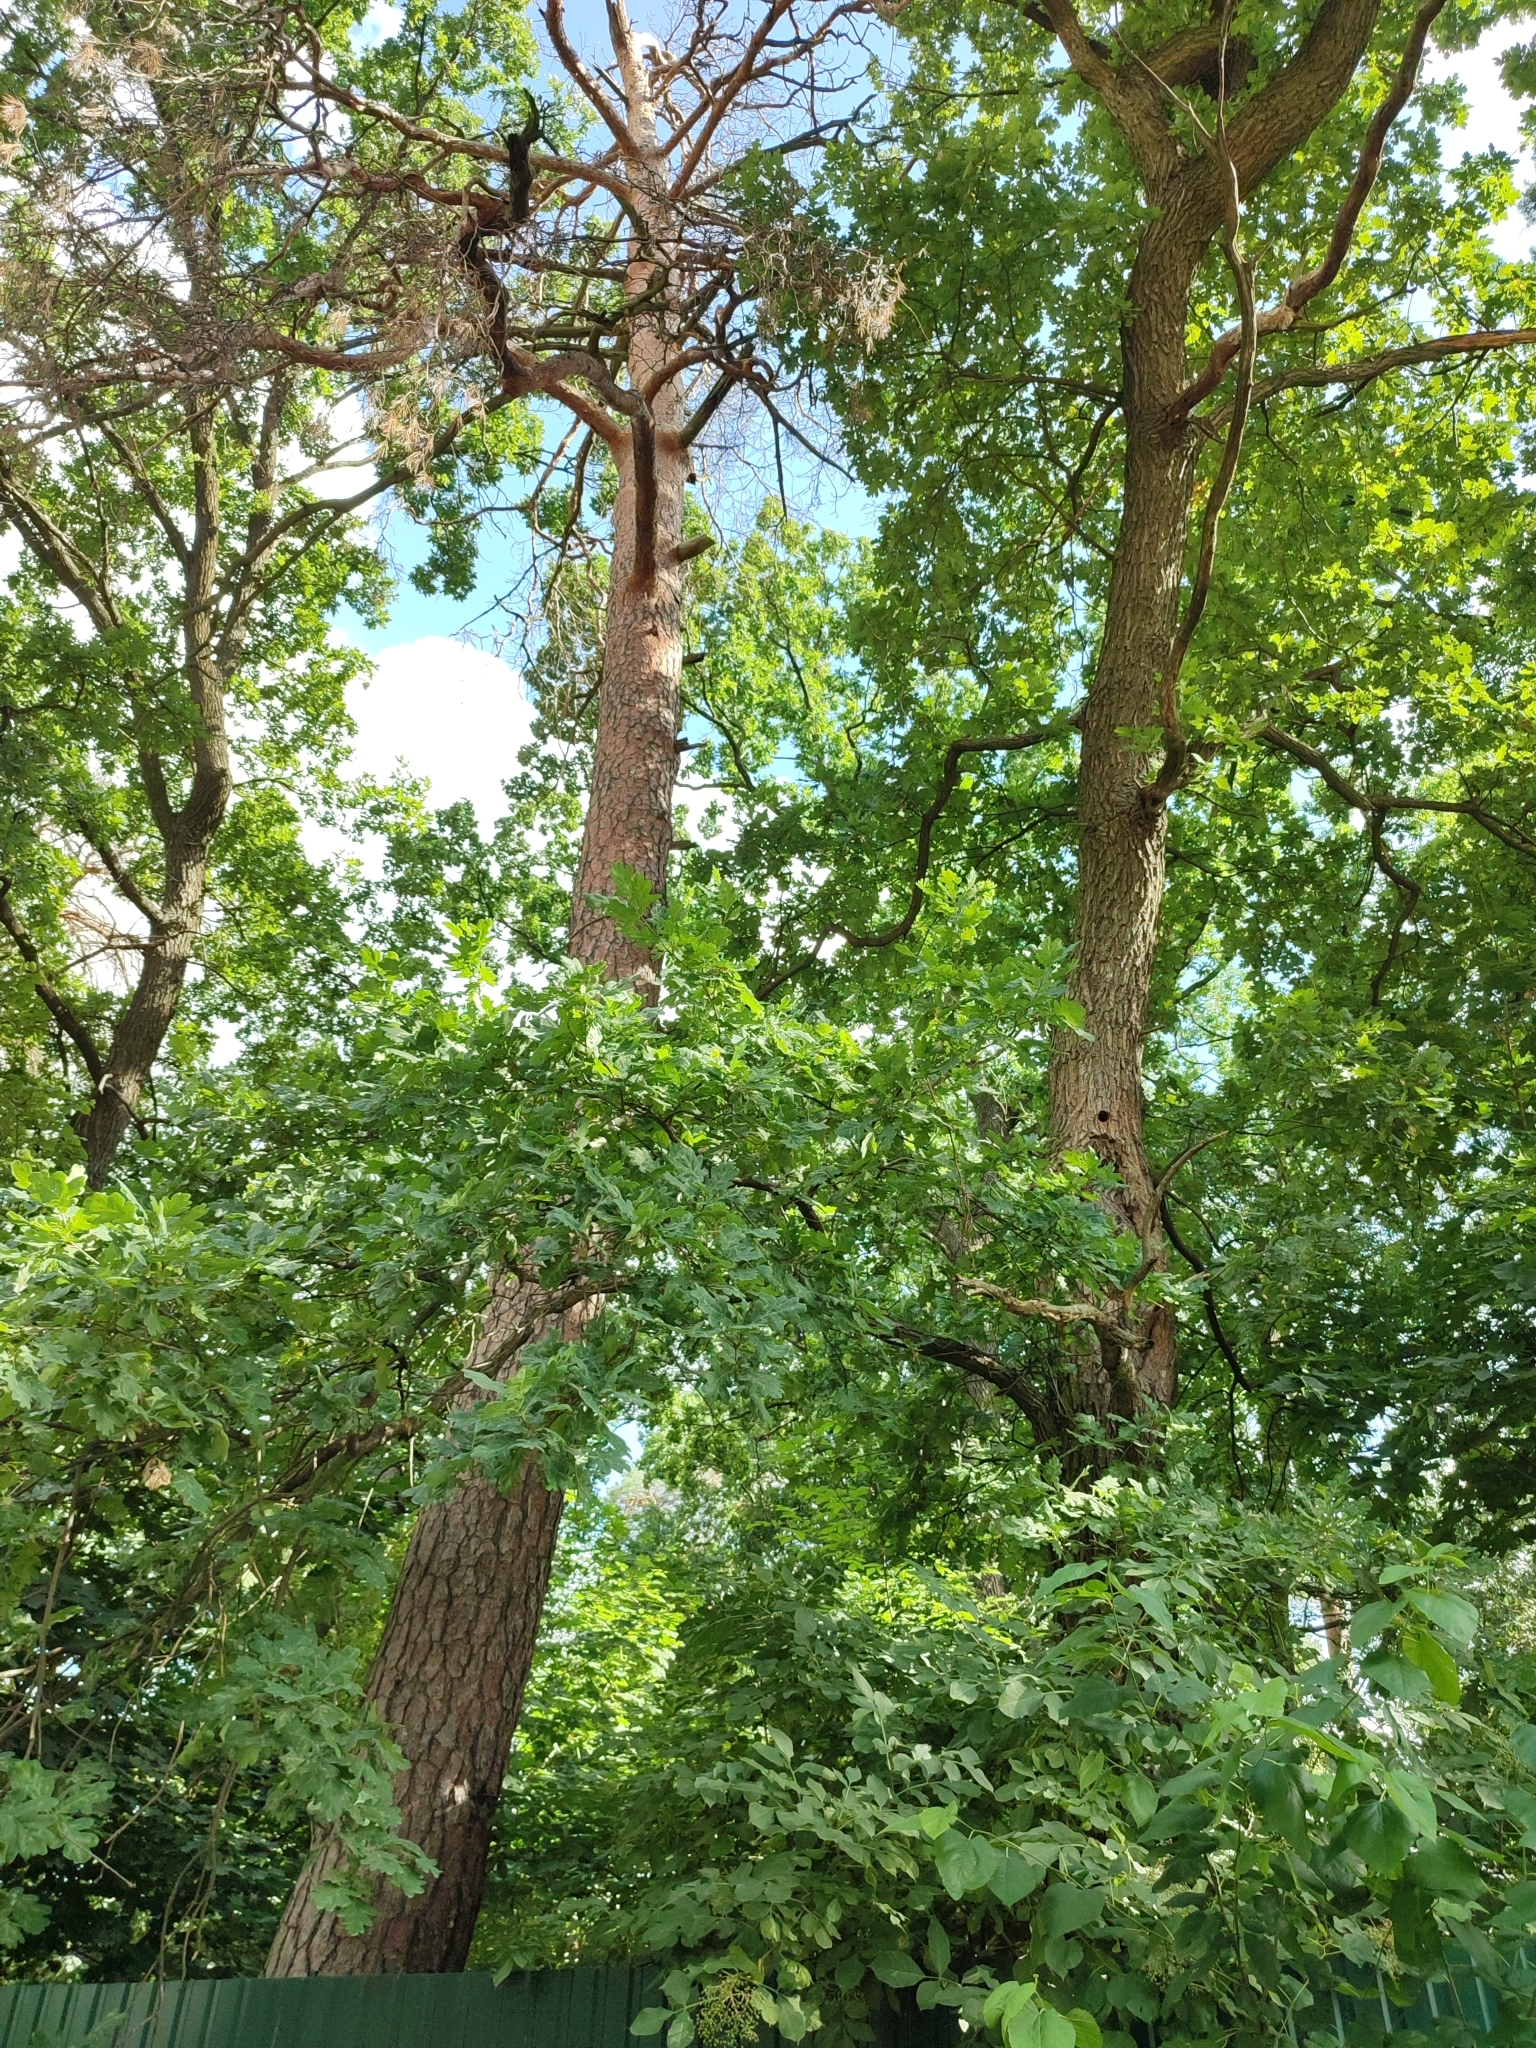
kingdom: Plantae
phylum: Tracheophyta
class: Magnoliopsida
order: Fagales
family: Fagaceae
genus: Quercus
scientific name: Quercus robur
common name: Pedunculate oak
